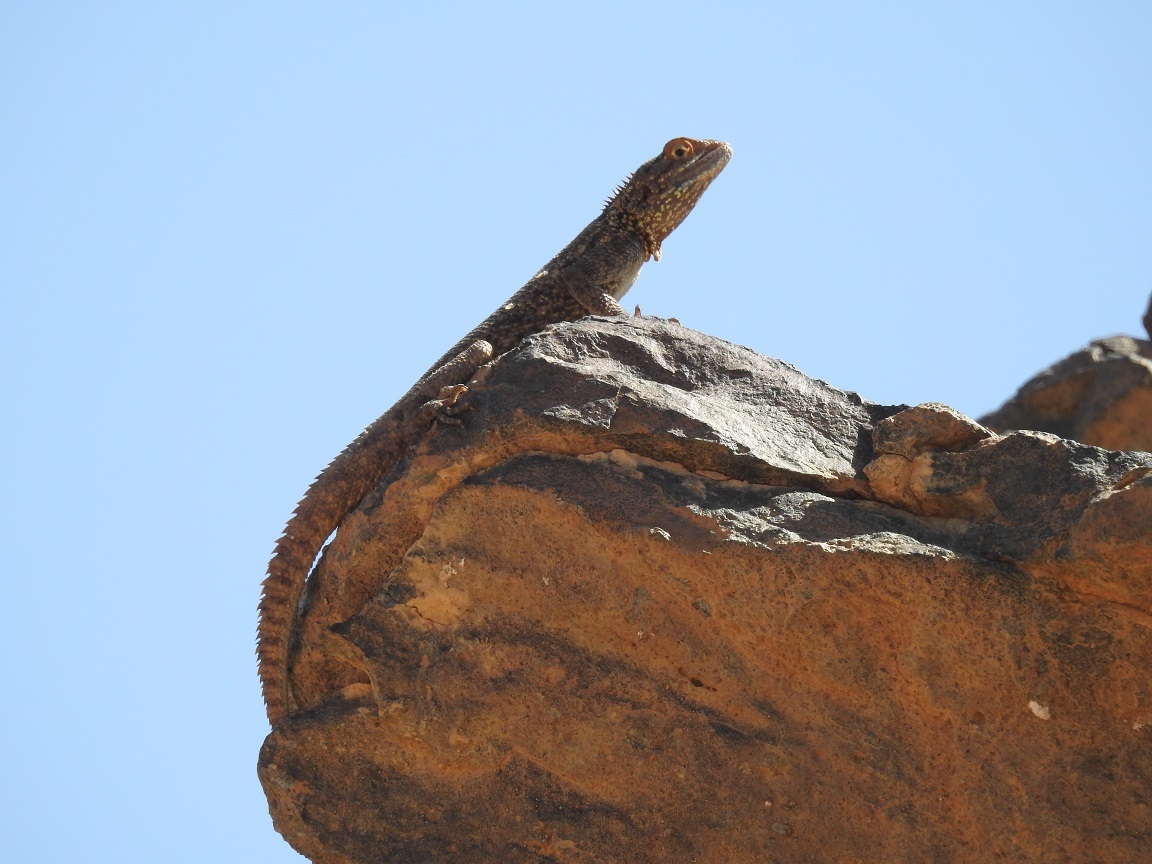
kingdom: Animalia
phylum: Chordata
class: Squamata
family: Agamidae
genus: Agama
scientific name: Agama tassiliensis
